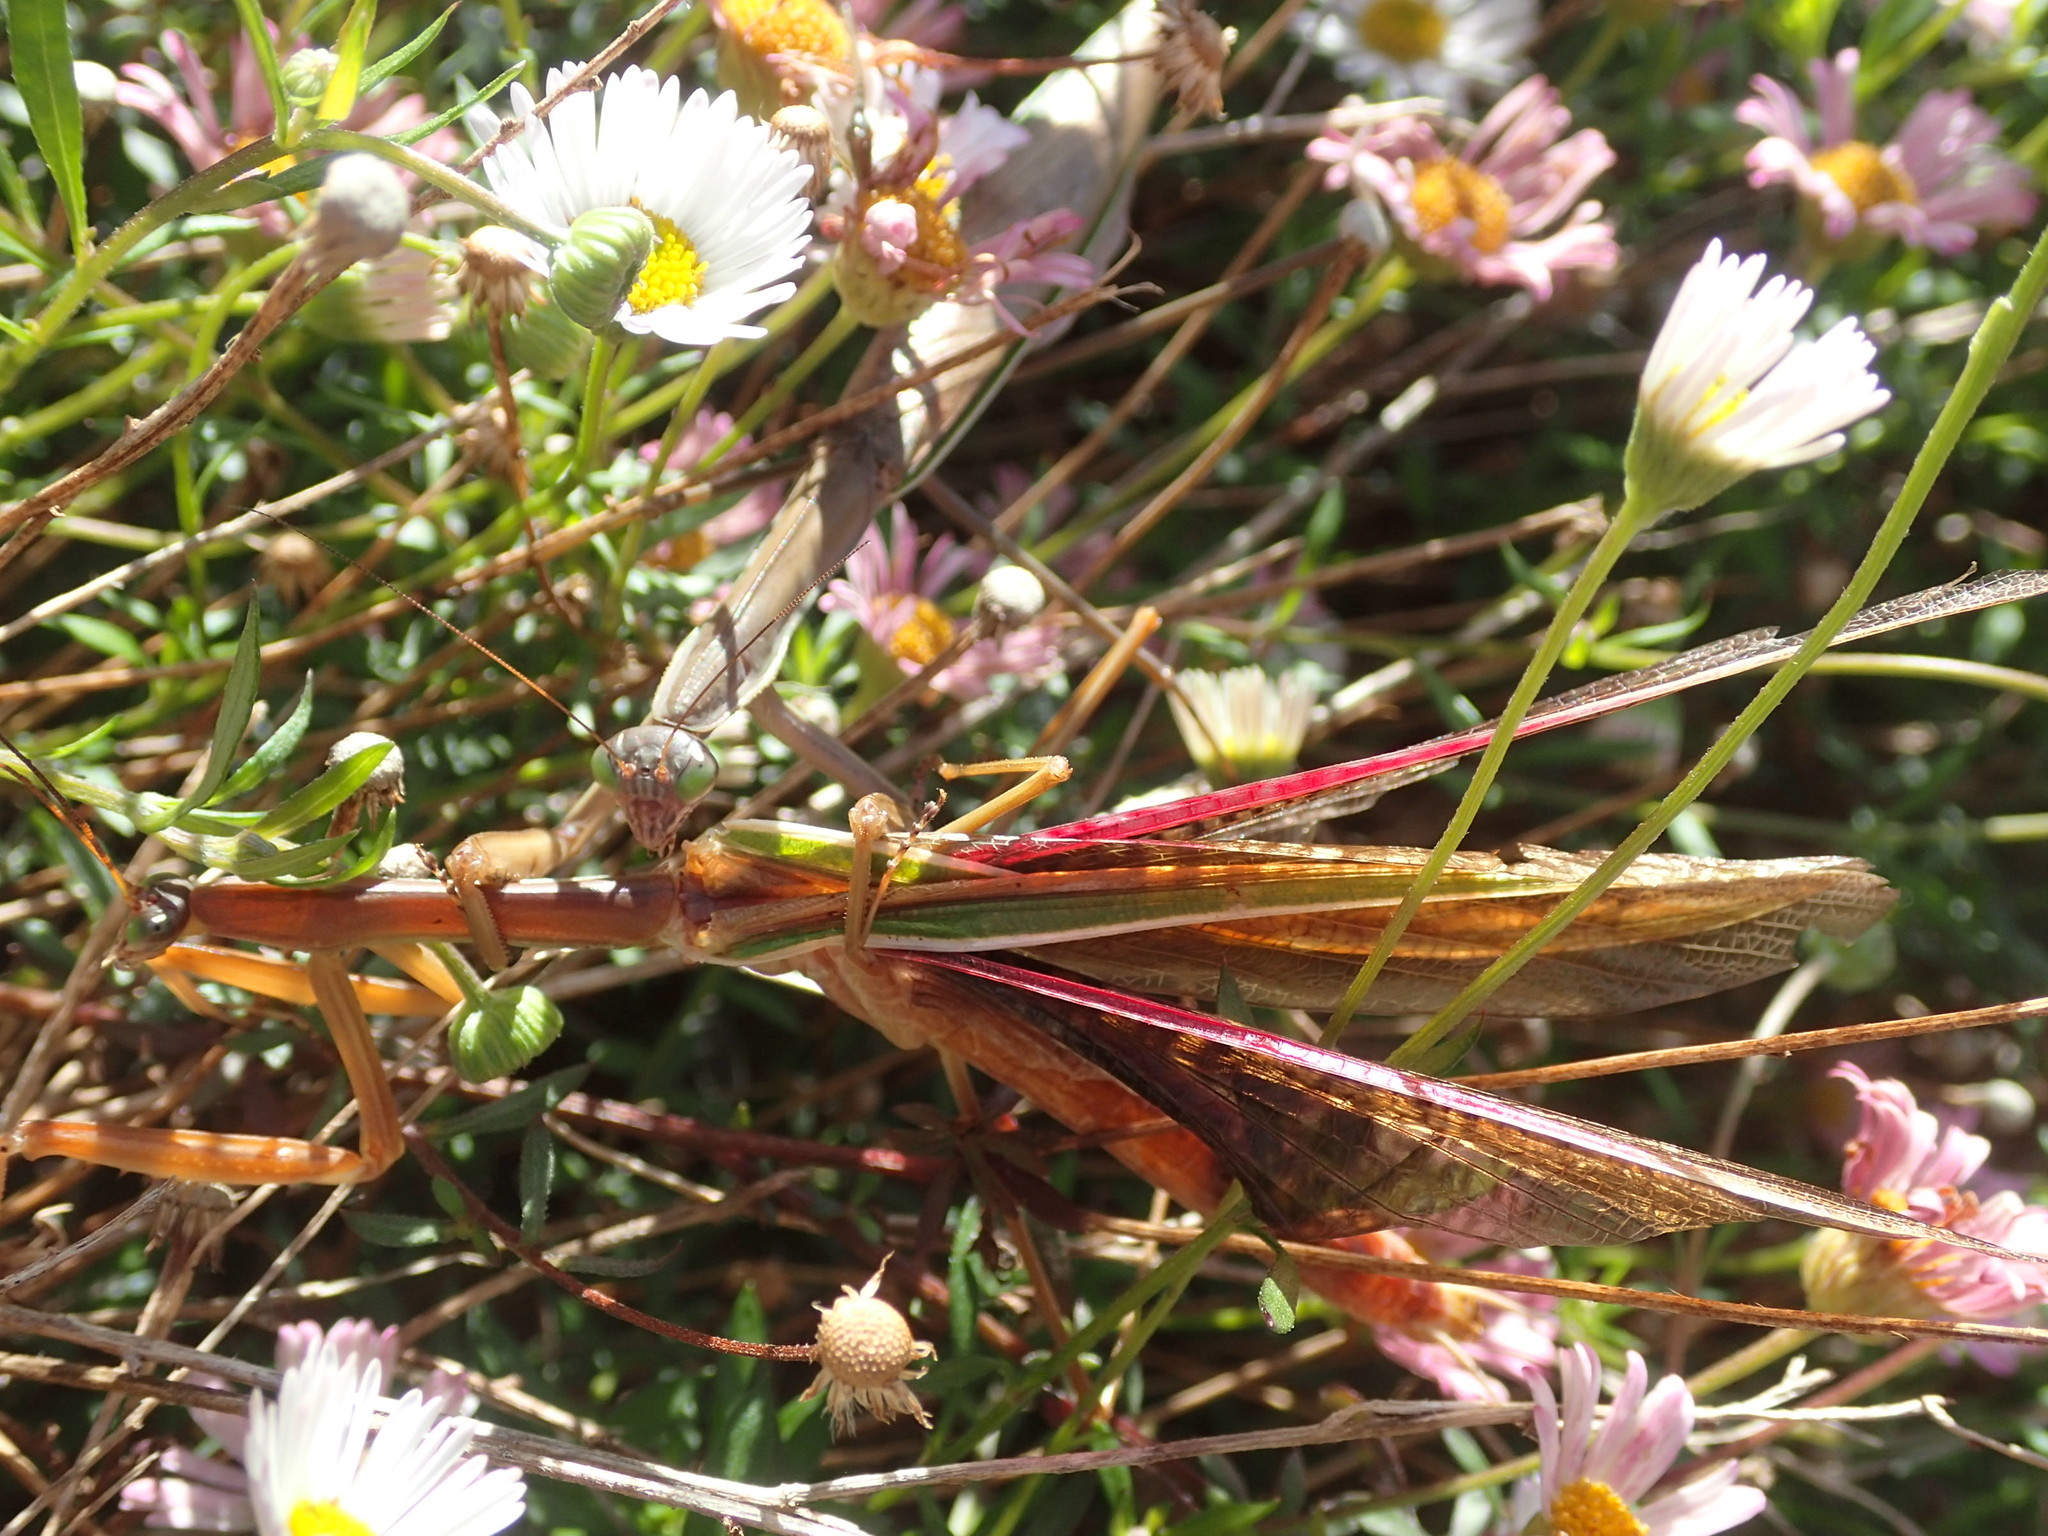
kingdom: Animalia
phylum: Arthropoda
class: Insecta
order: Mantodea
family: Mantidae
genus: Tenodera
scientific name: Tenodera australasiae
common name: Purple-winged mantis
